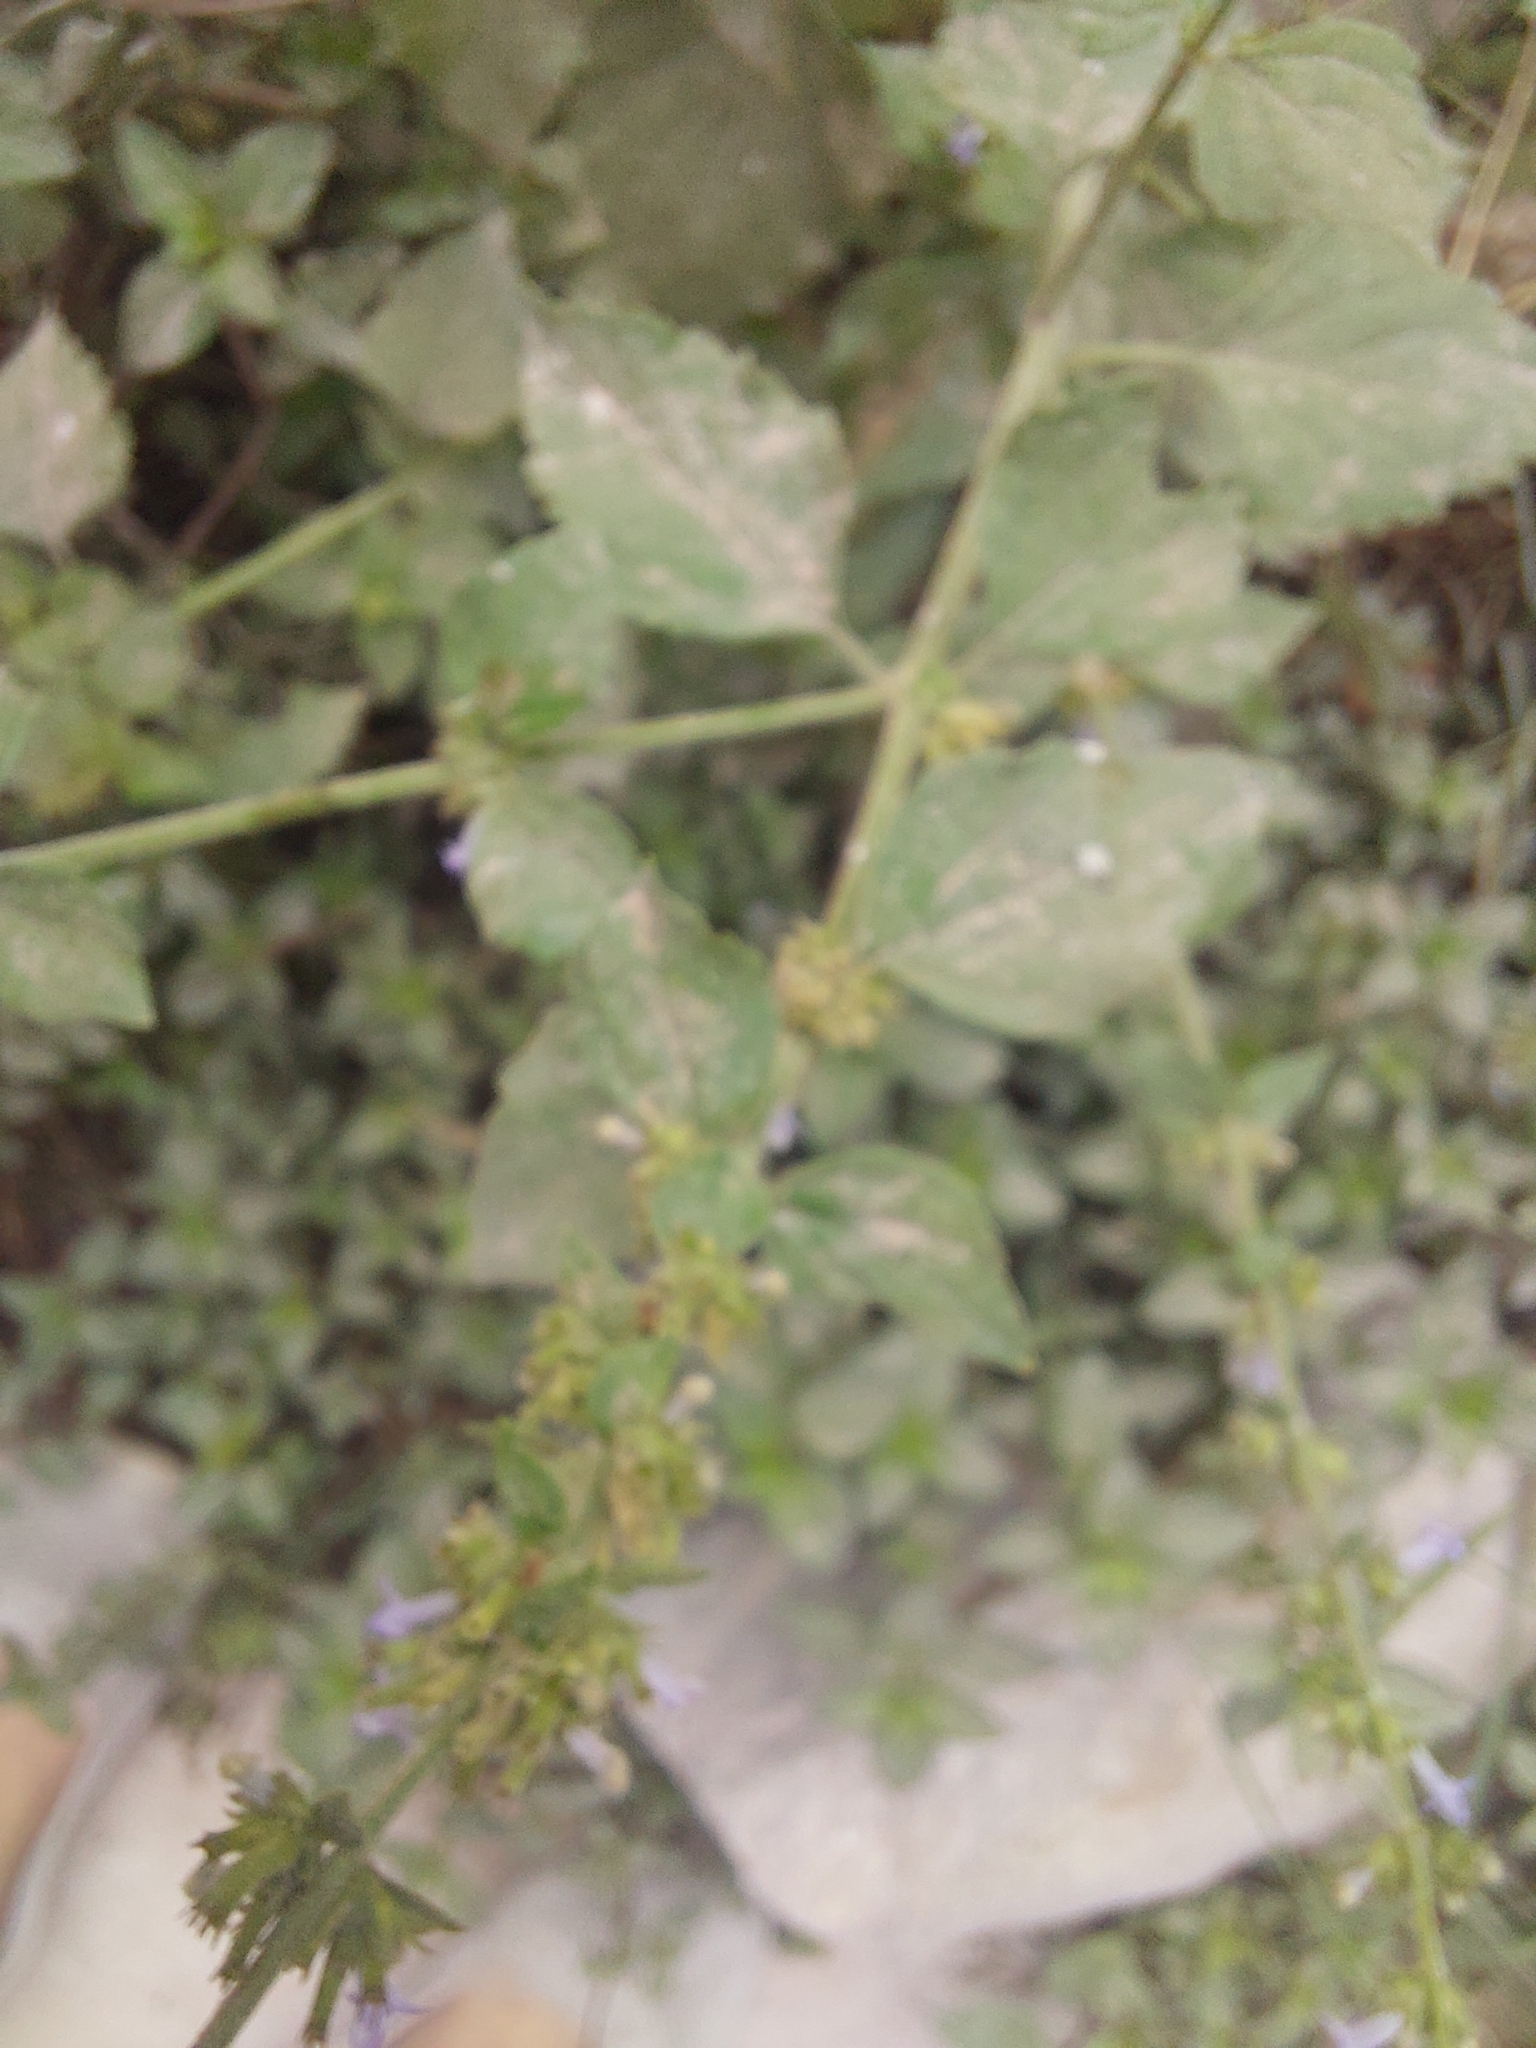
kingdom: Plantae
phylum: Tracheophyta
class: Magnoliopsida
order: Lamiales
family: Lamiaceae
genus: Cantinoa
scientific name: Cantinoa mutabilis
